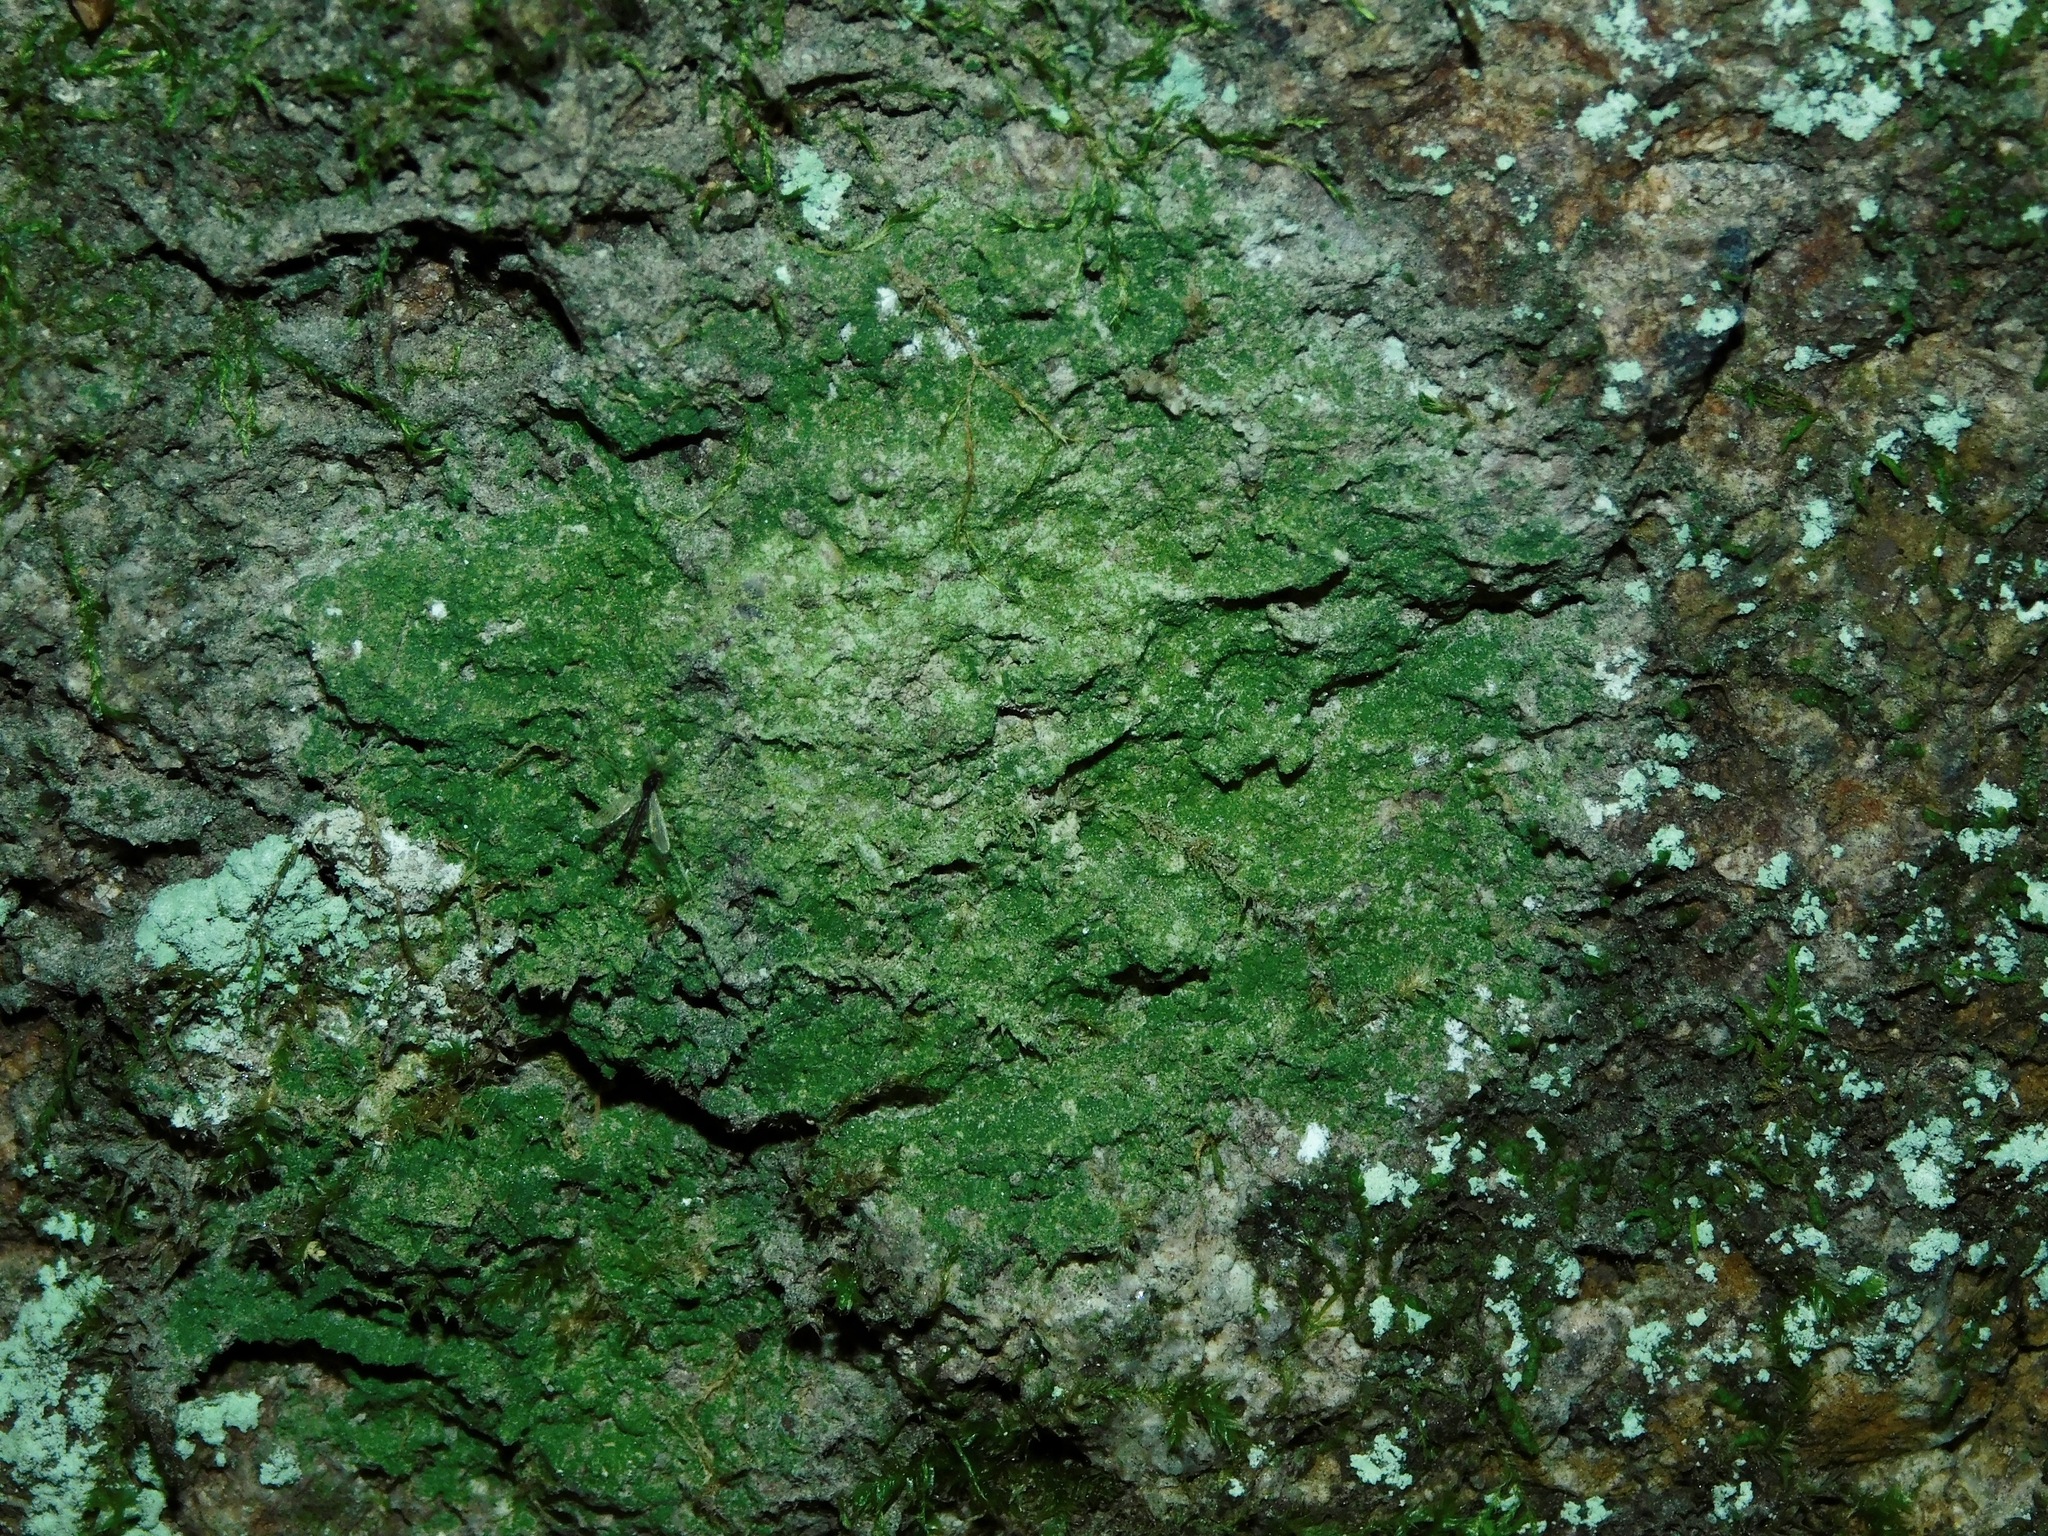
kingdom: Fungi
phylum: Ascomycota
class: Eurotiomycetes
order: Verrucariales
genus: Botryolepraria
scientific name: Botryolepraria lesdainii
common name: Rock candy
